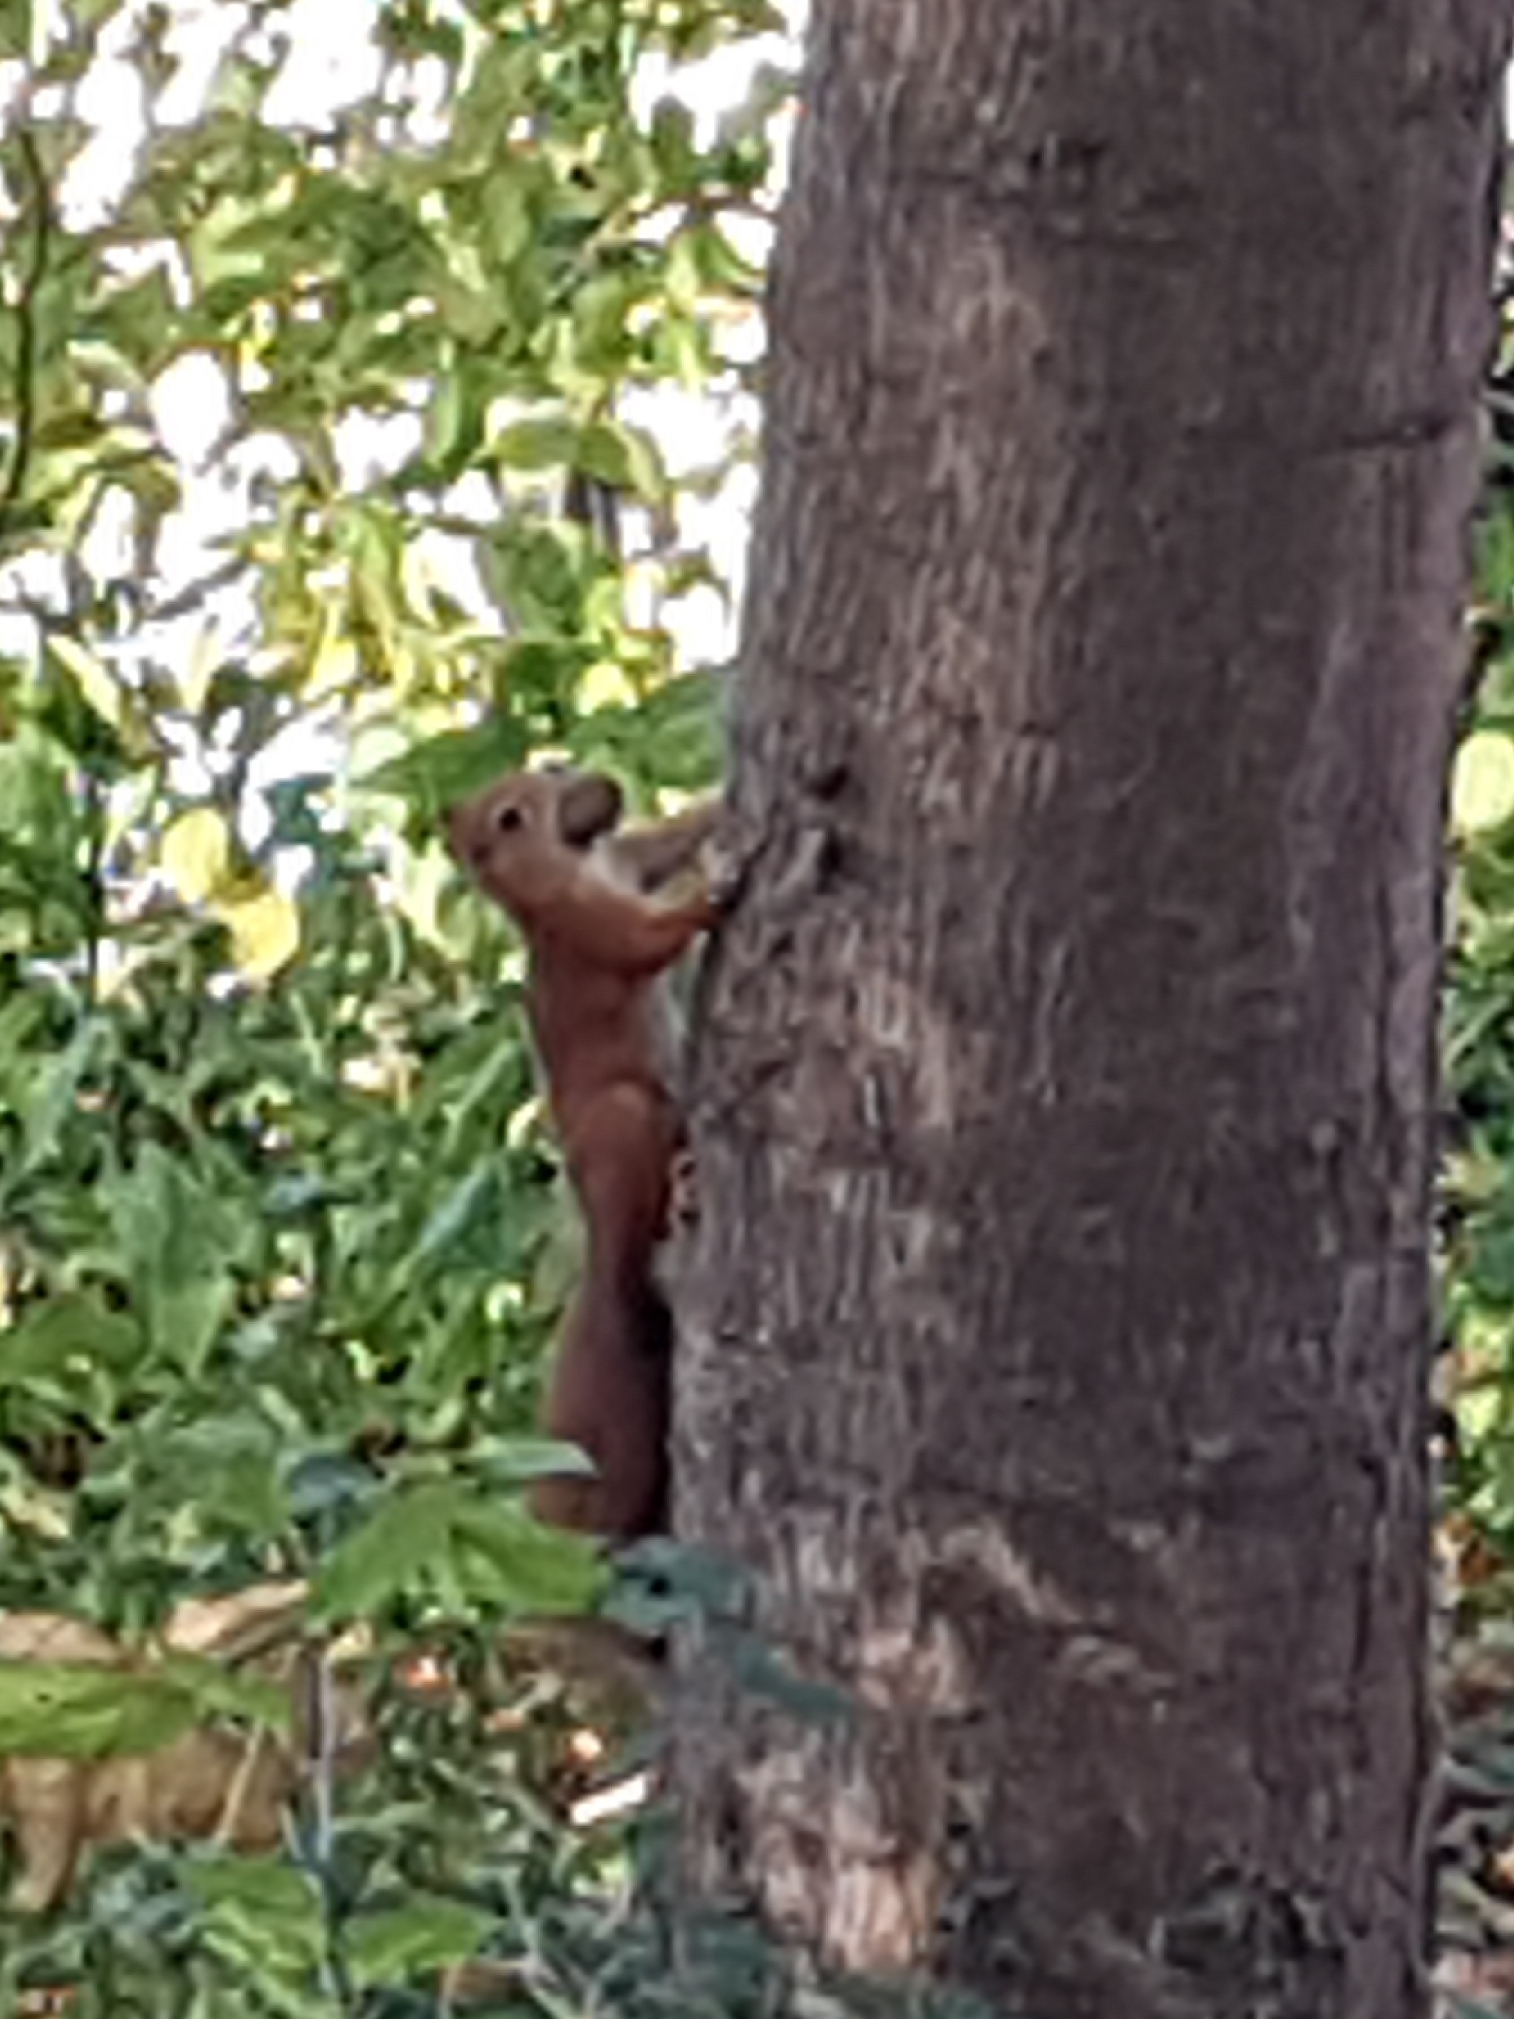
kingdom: Animalia
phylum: Chordata
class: Mammalia
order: Rodentia
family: Sciuridae
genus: Sciurus
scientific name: Sciurus vulgaris
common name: Eurasian red squirrel
